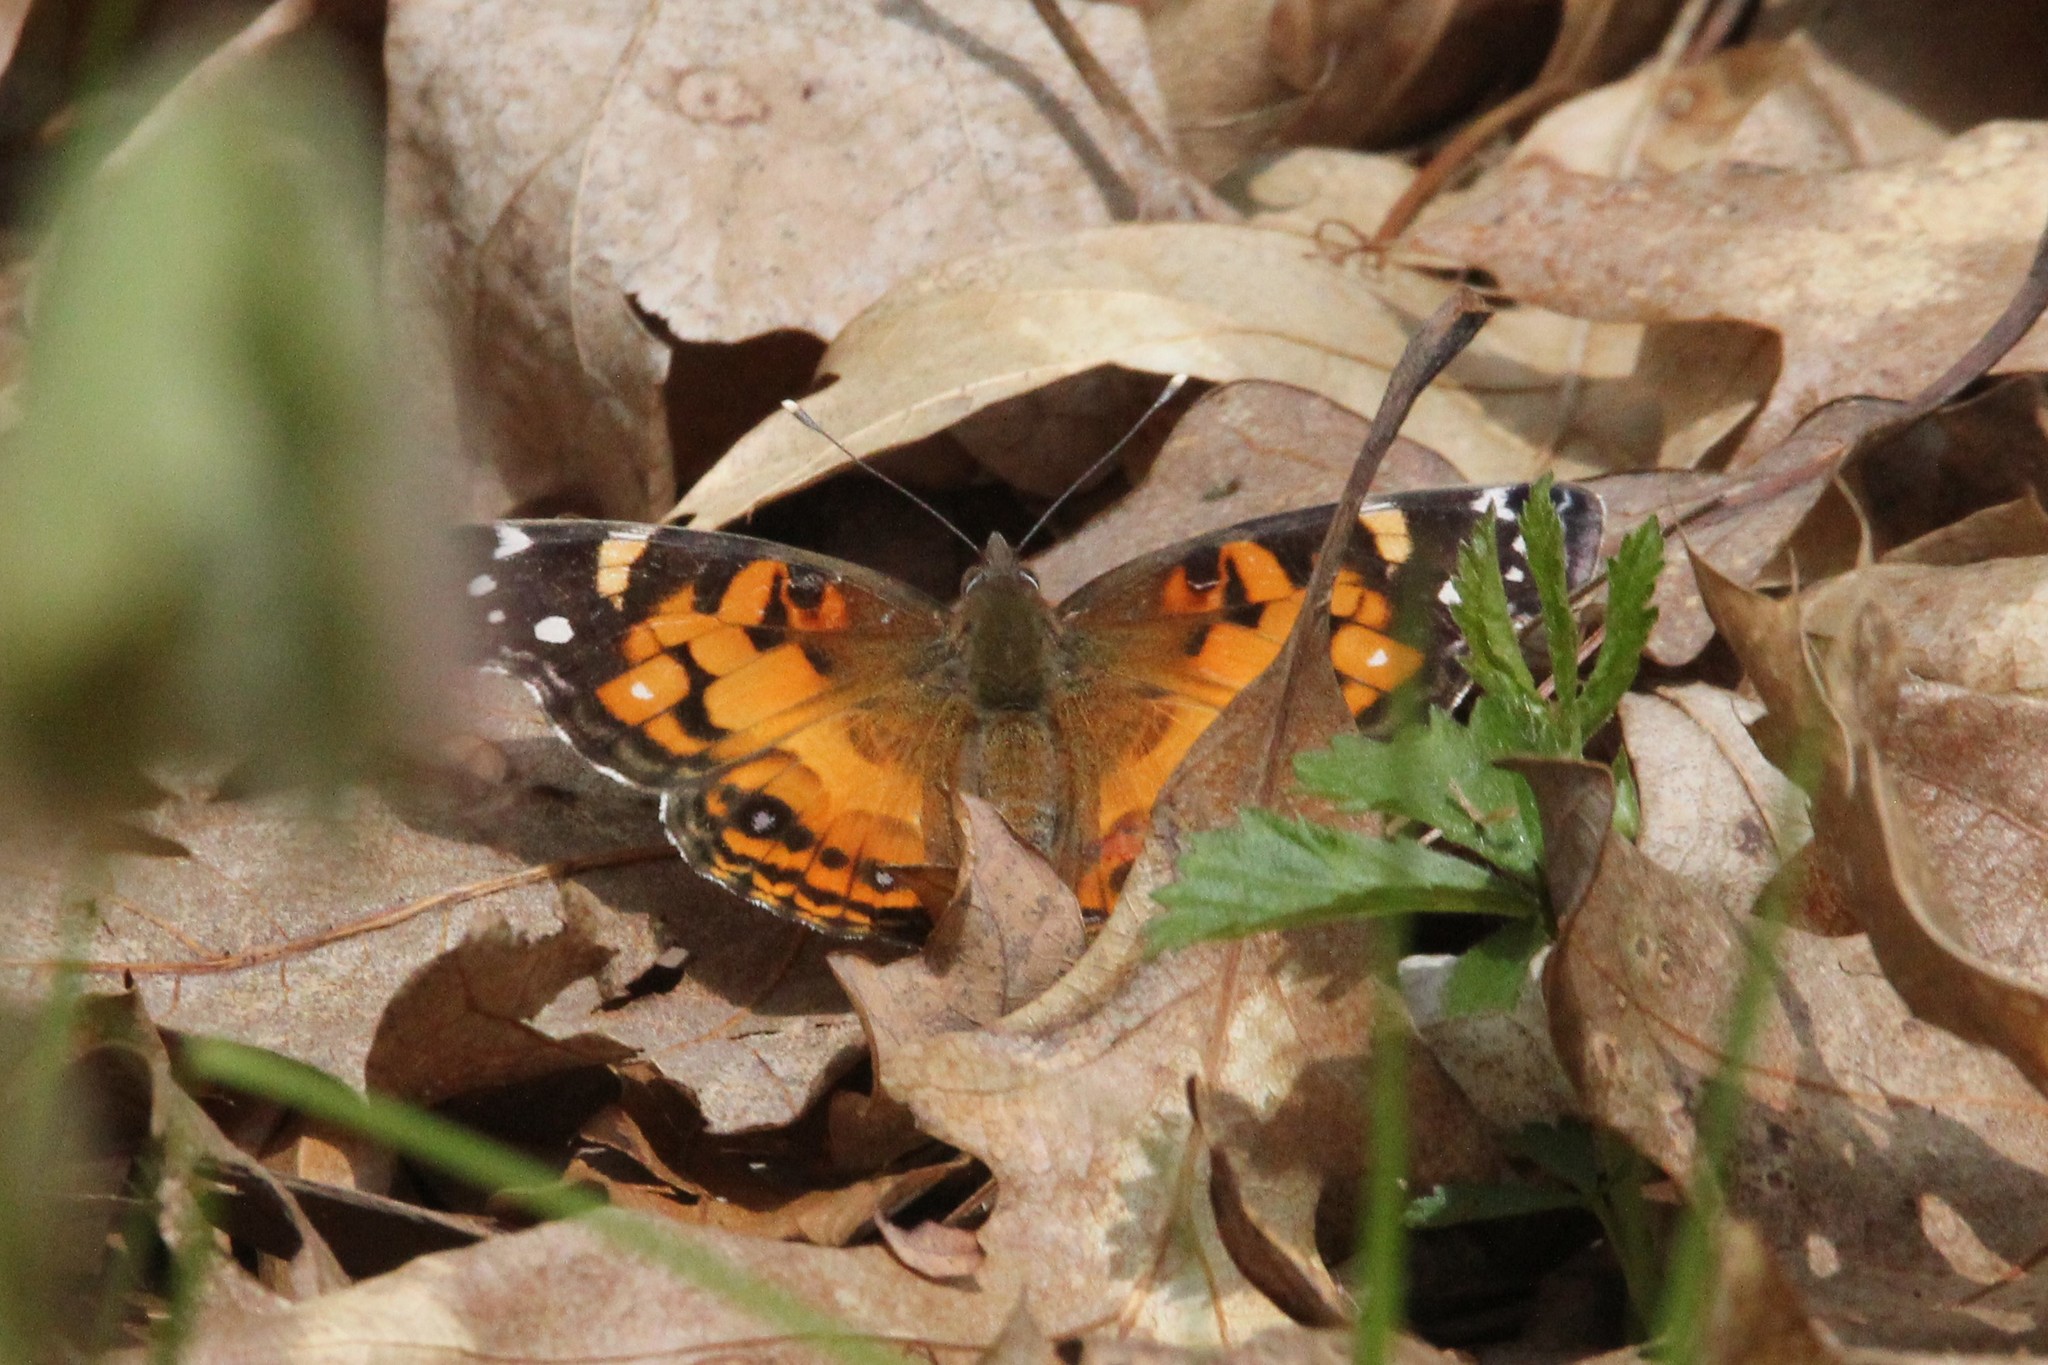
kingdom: Animalia
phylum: Arthropoda
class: Insecta
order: Lepidoptera
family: Nymphalidae
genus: Vanessa
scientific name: Vanessa virginiensis
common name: American lady
